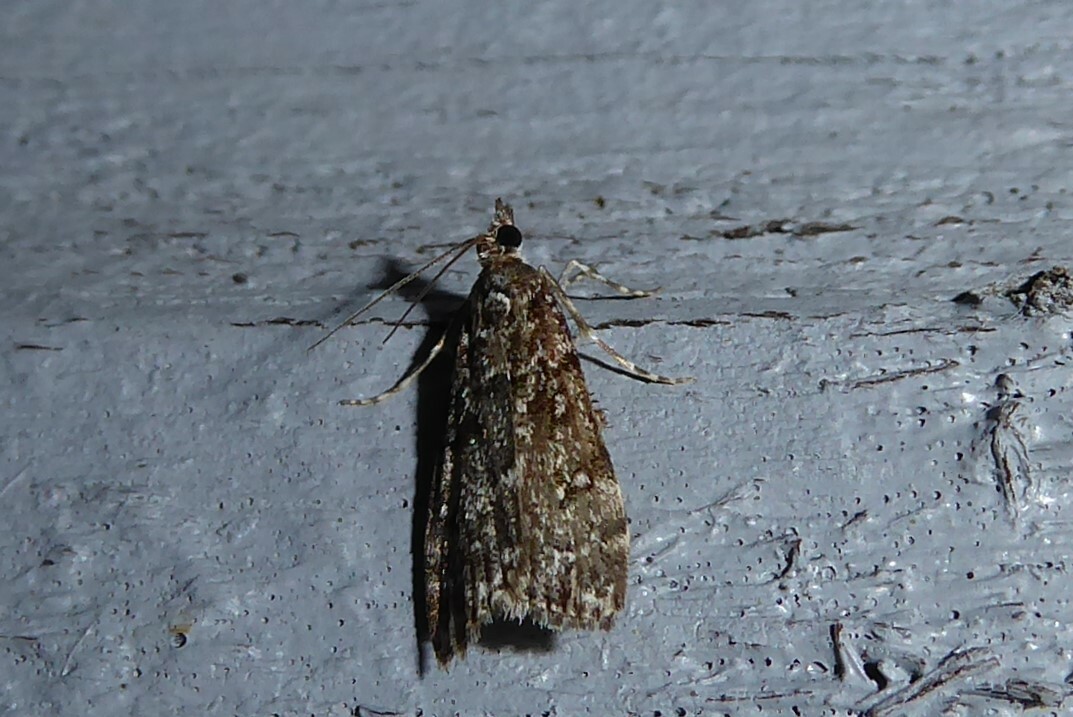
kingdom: Animalia
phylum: Arthropoda
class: Insecta
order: Lepidoptera
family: Crambidae
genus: Eudonia
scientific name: Eudonia philerga
